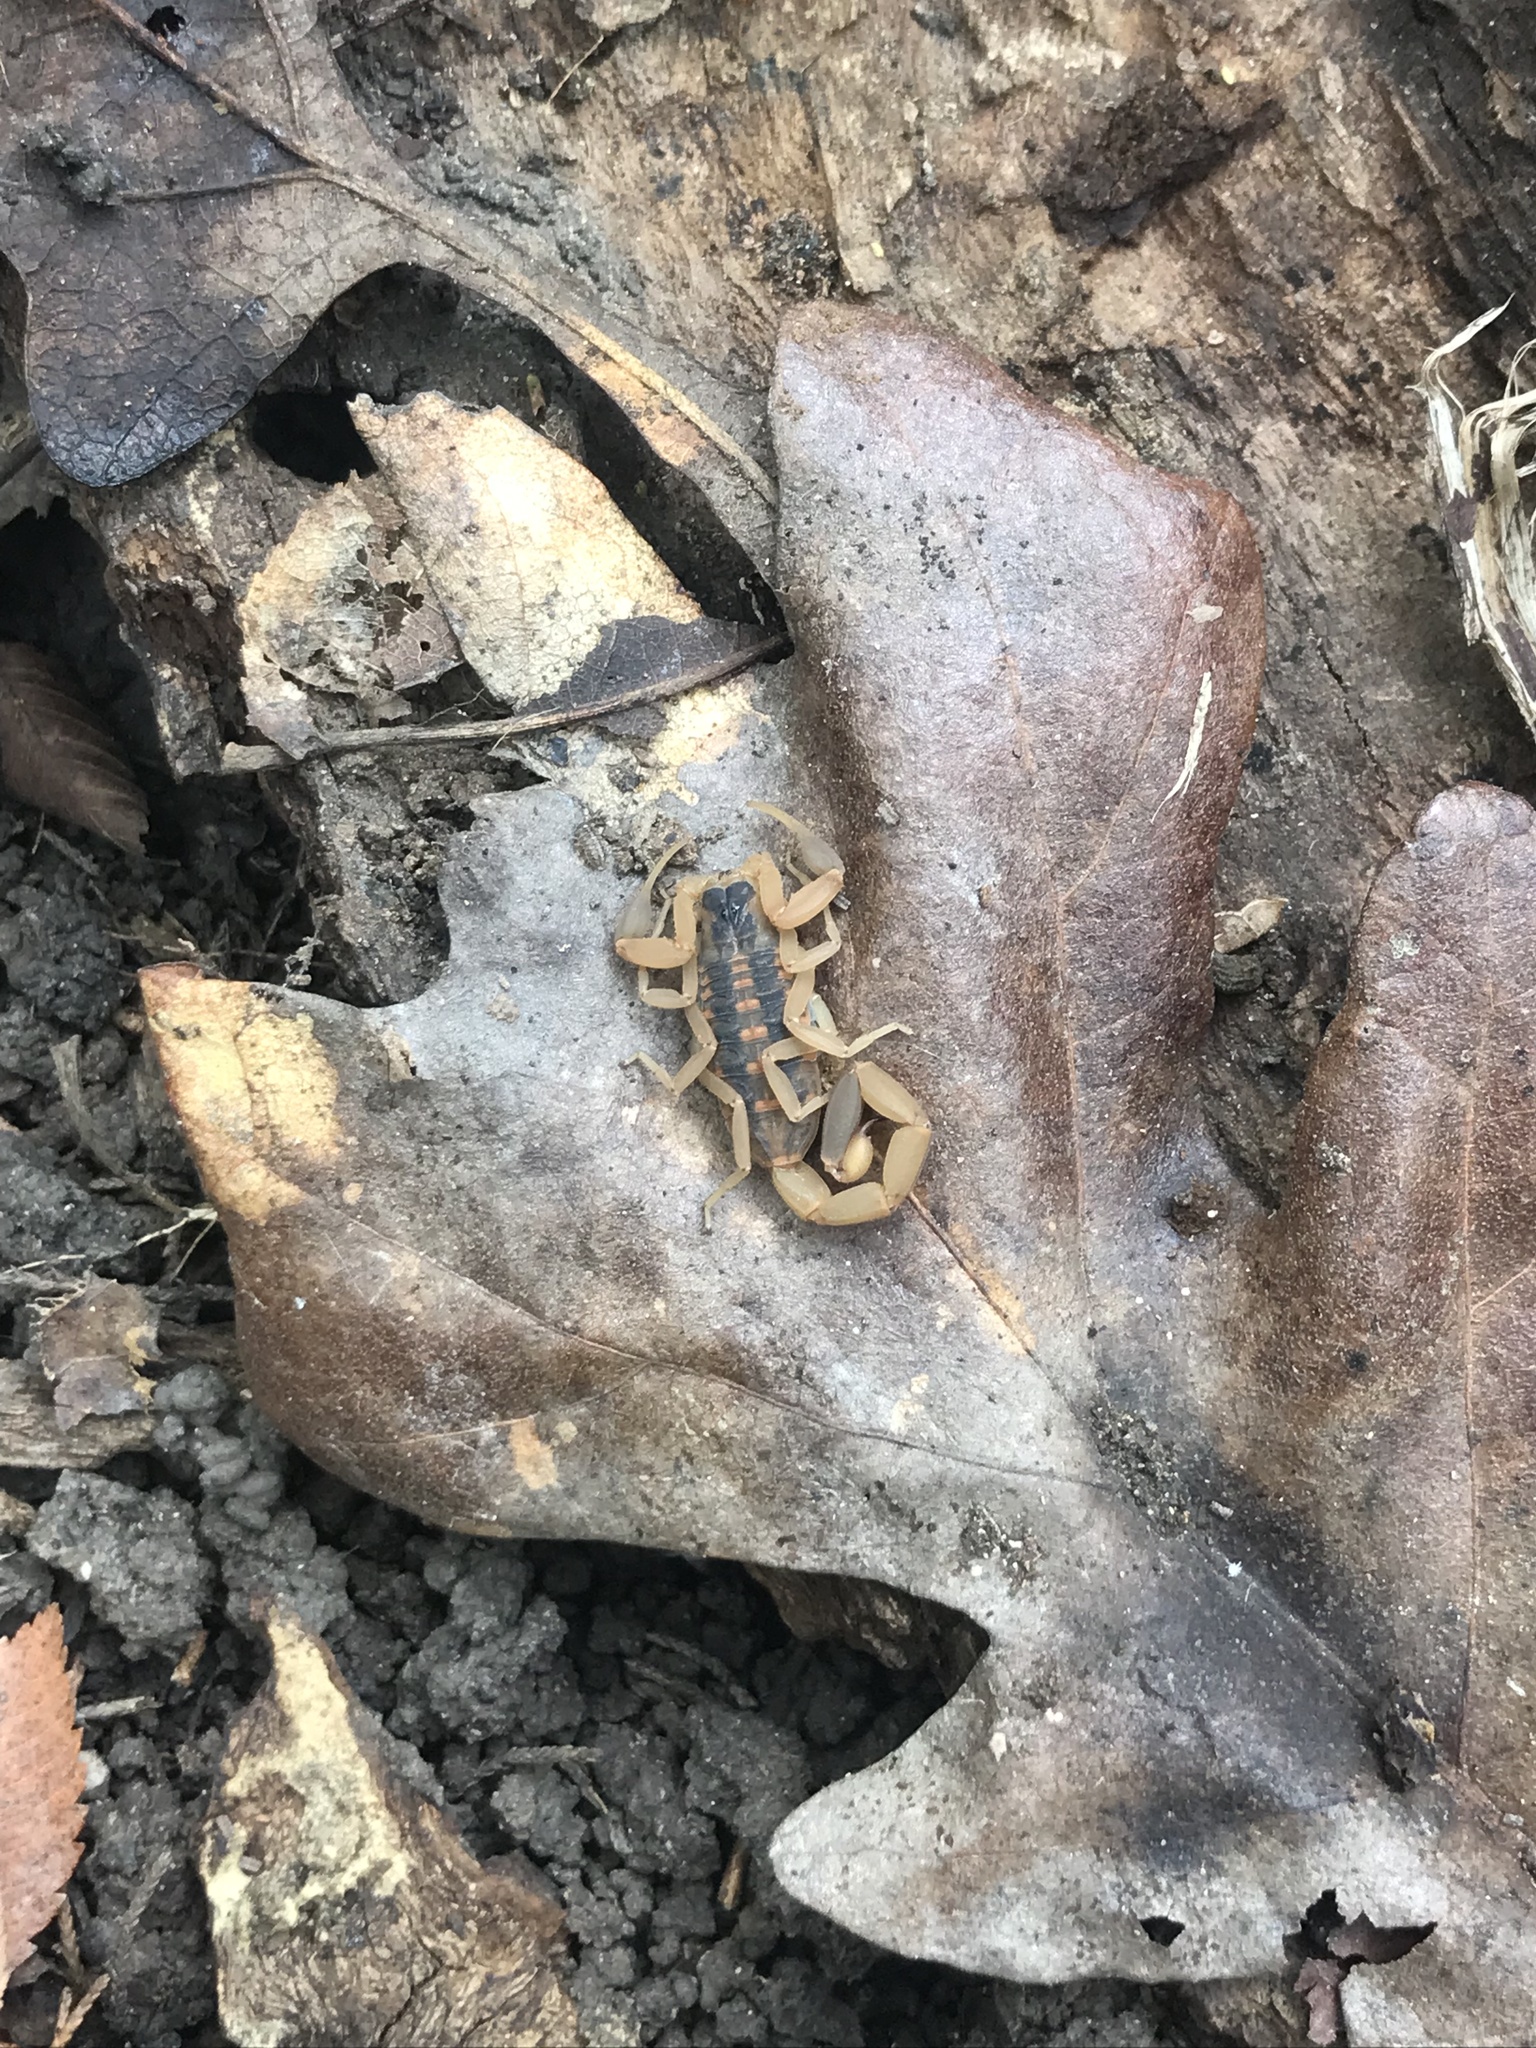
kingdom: Animalia
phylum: Arthropoda
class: Arachnida
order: Scorpiones
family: Buthidae
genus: Centruroides
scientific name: Centruroides vittatus
